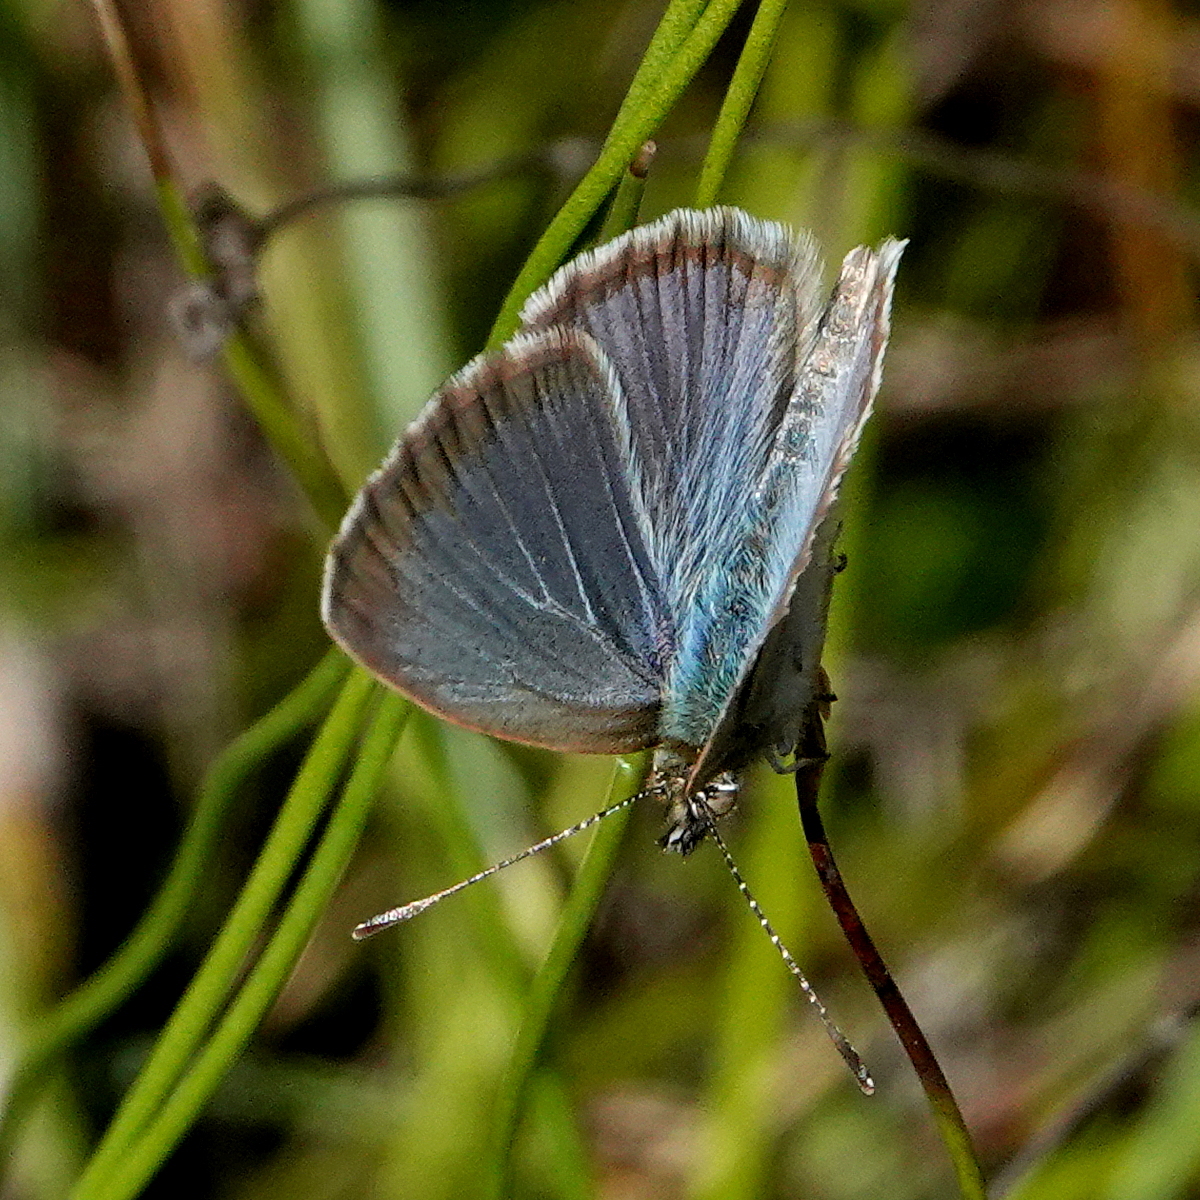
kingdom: Animalia
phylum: Arthropoda
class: Insecta
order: Lepidoptera
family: Lycaenidae
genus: Zizina
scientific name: Zizina otis
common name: Lesser grass blue
